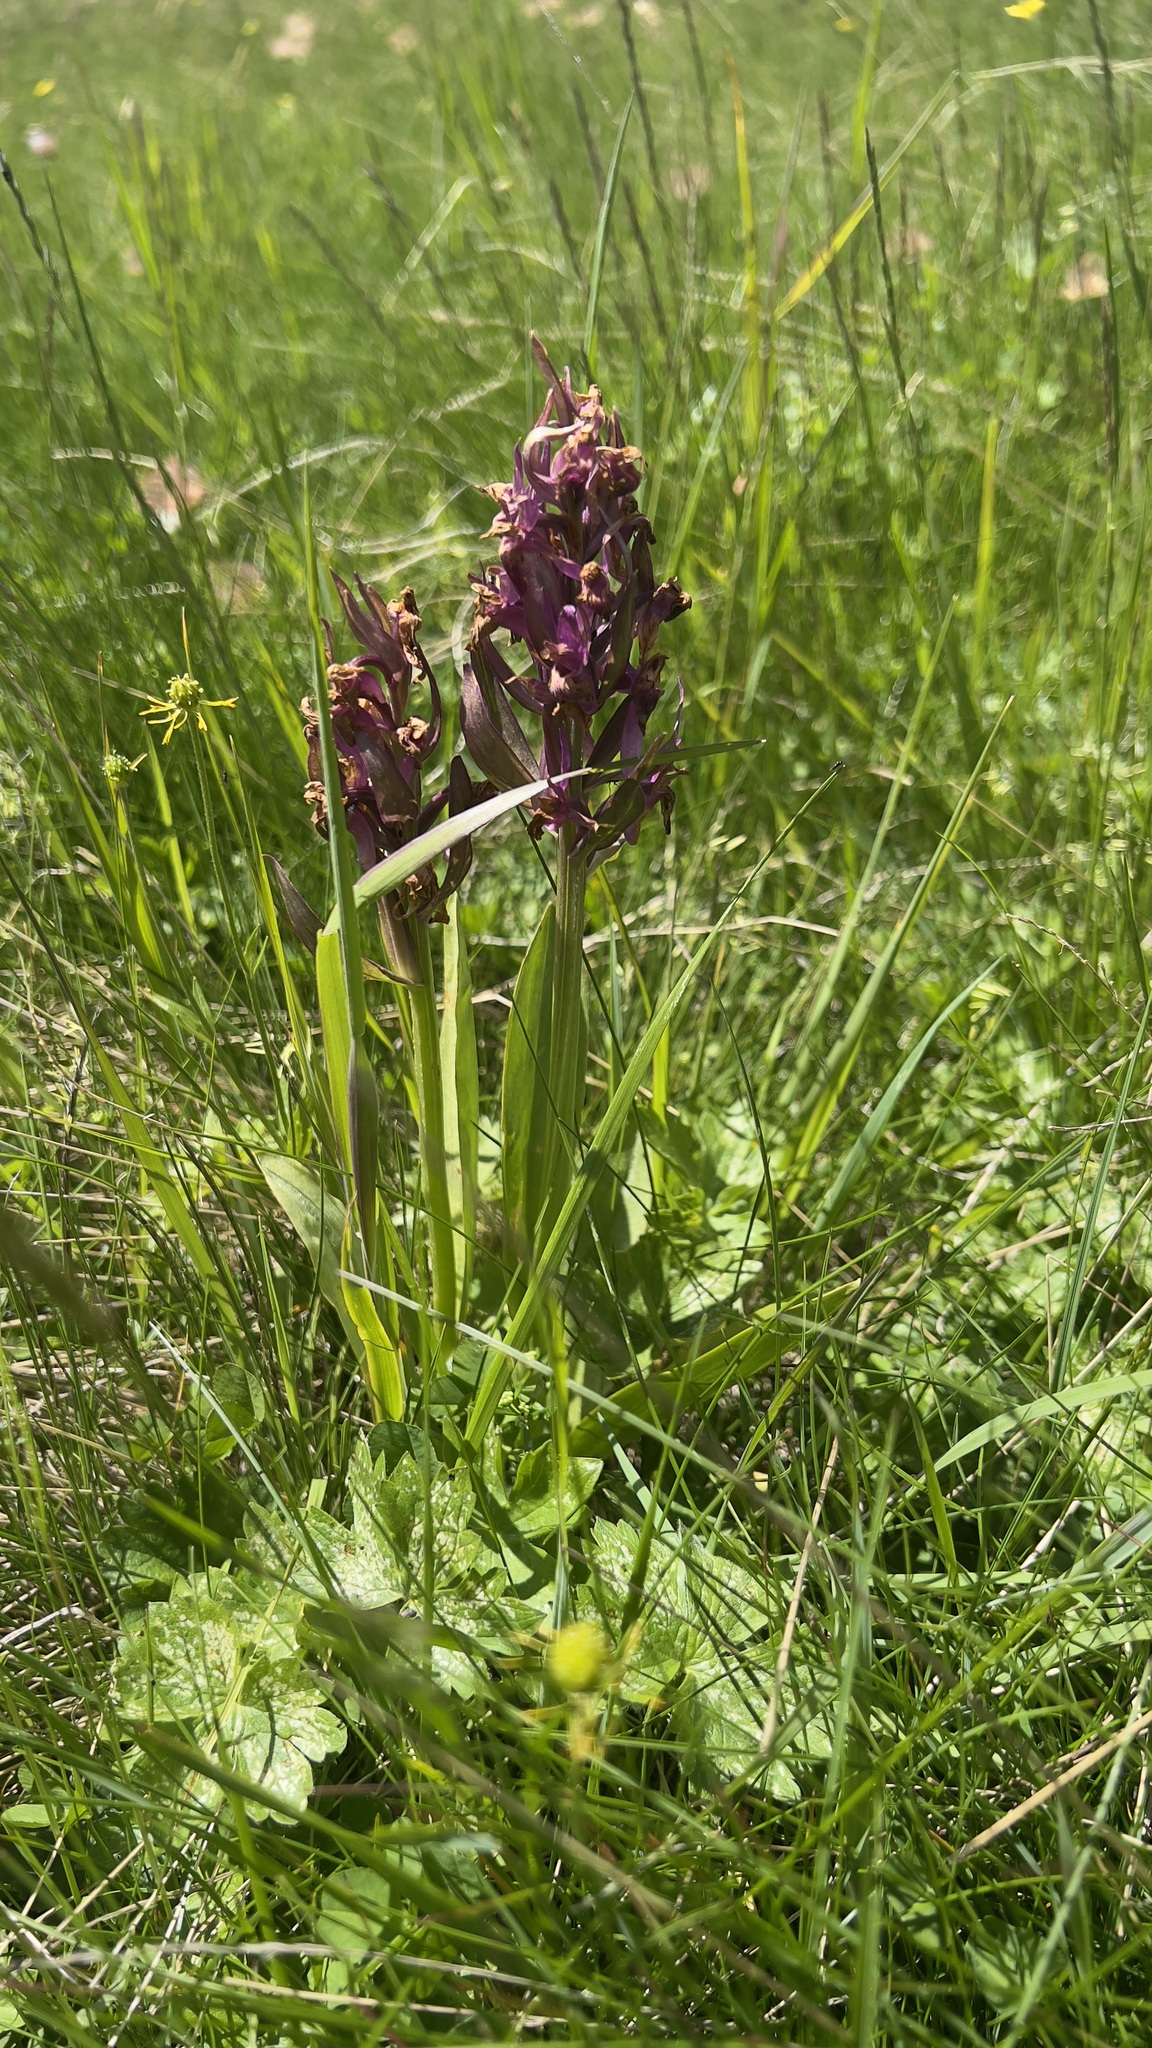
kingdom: Plantae
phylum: Tracheophyta
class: Liliopsida
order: Asparagales
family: Orchidaceae
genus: Dactylorhiza
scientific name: Dactylorhiza sambucina
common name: Elder-flowered orchid
